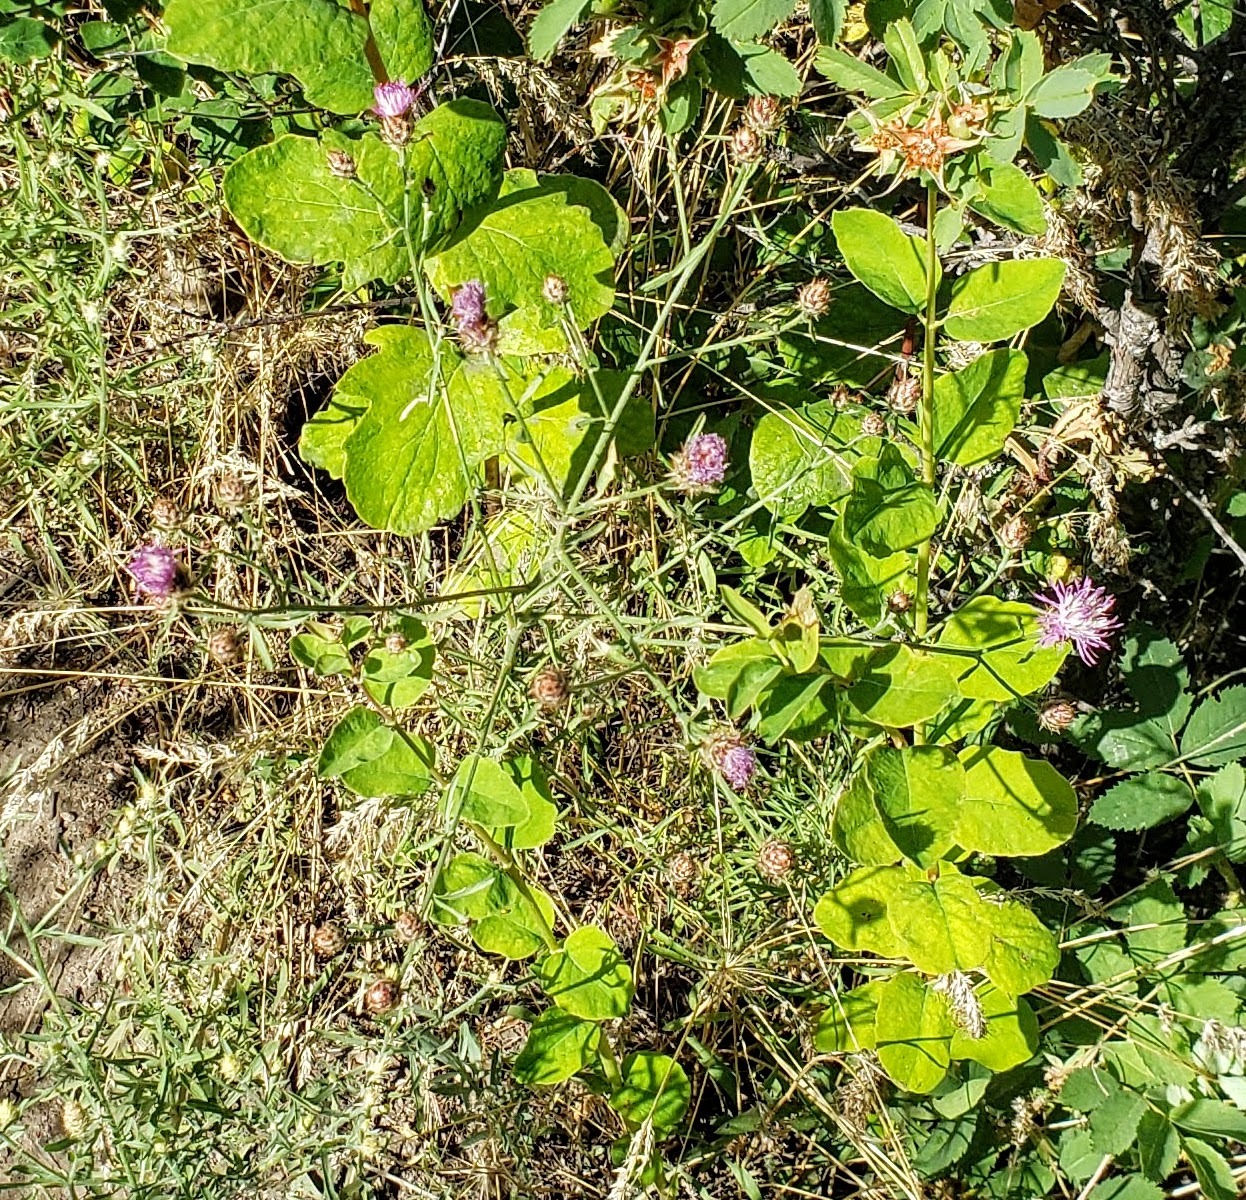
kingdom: Plantae
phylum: Tracheophyta
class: Magnoliopsida
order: Asterales
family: Asteraceae
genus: Centaurea
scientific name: Centaurea diffusa
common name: Diffuse knapweed
